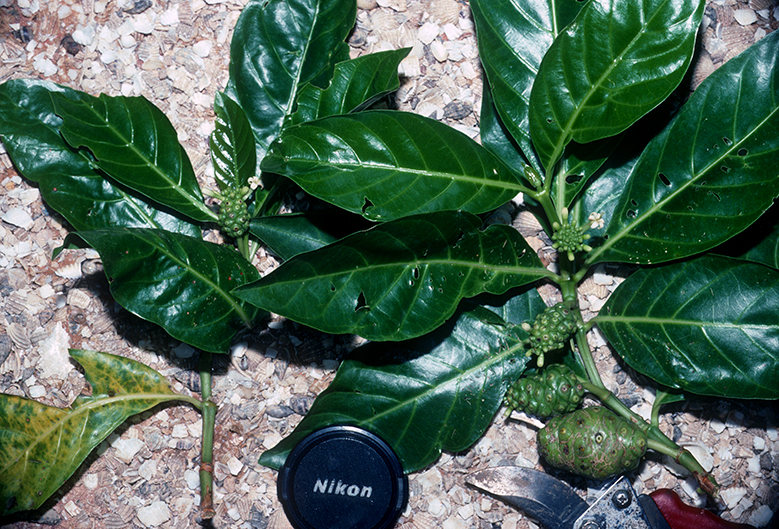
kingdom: Plantae
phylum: Tracheophyta
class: Magnoliopsida
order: Gentianales
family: Rubiaceae
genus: Morinda
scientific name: Morinda citrifolia
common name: Indian-mulberry
